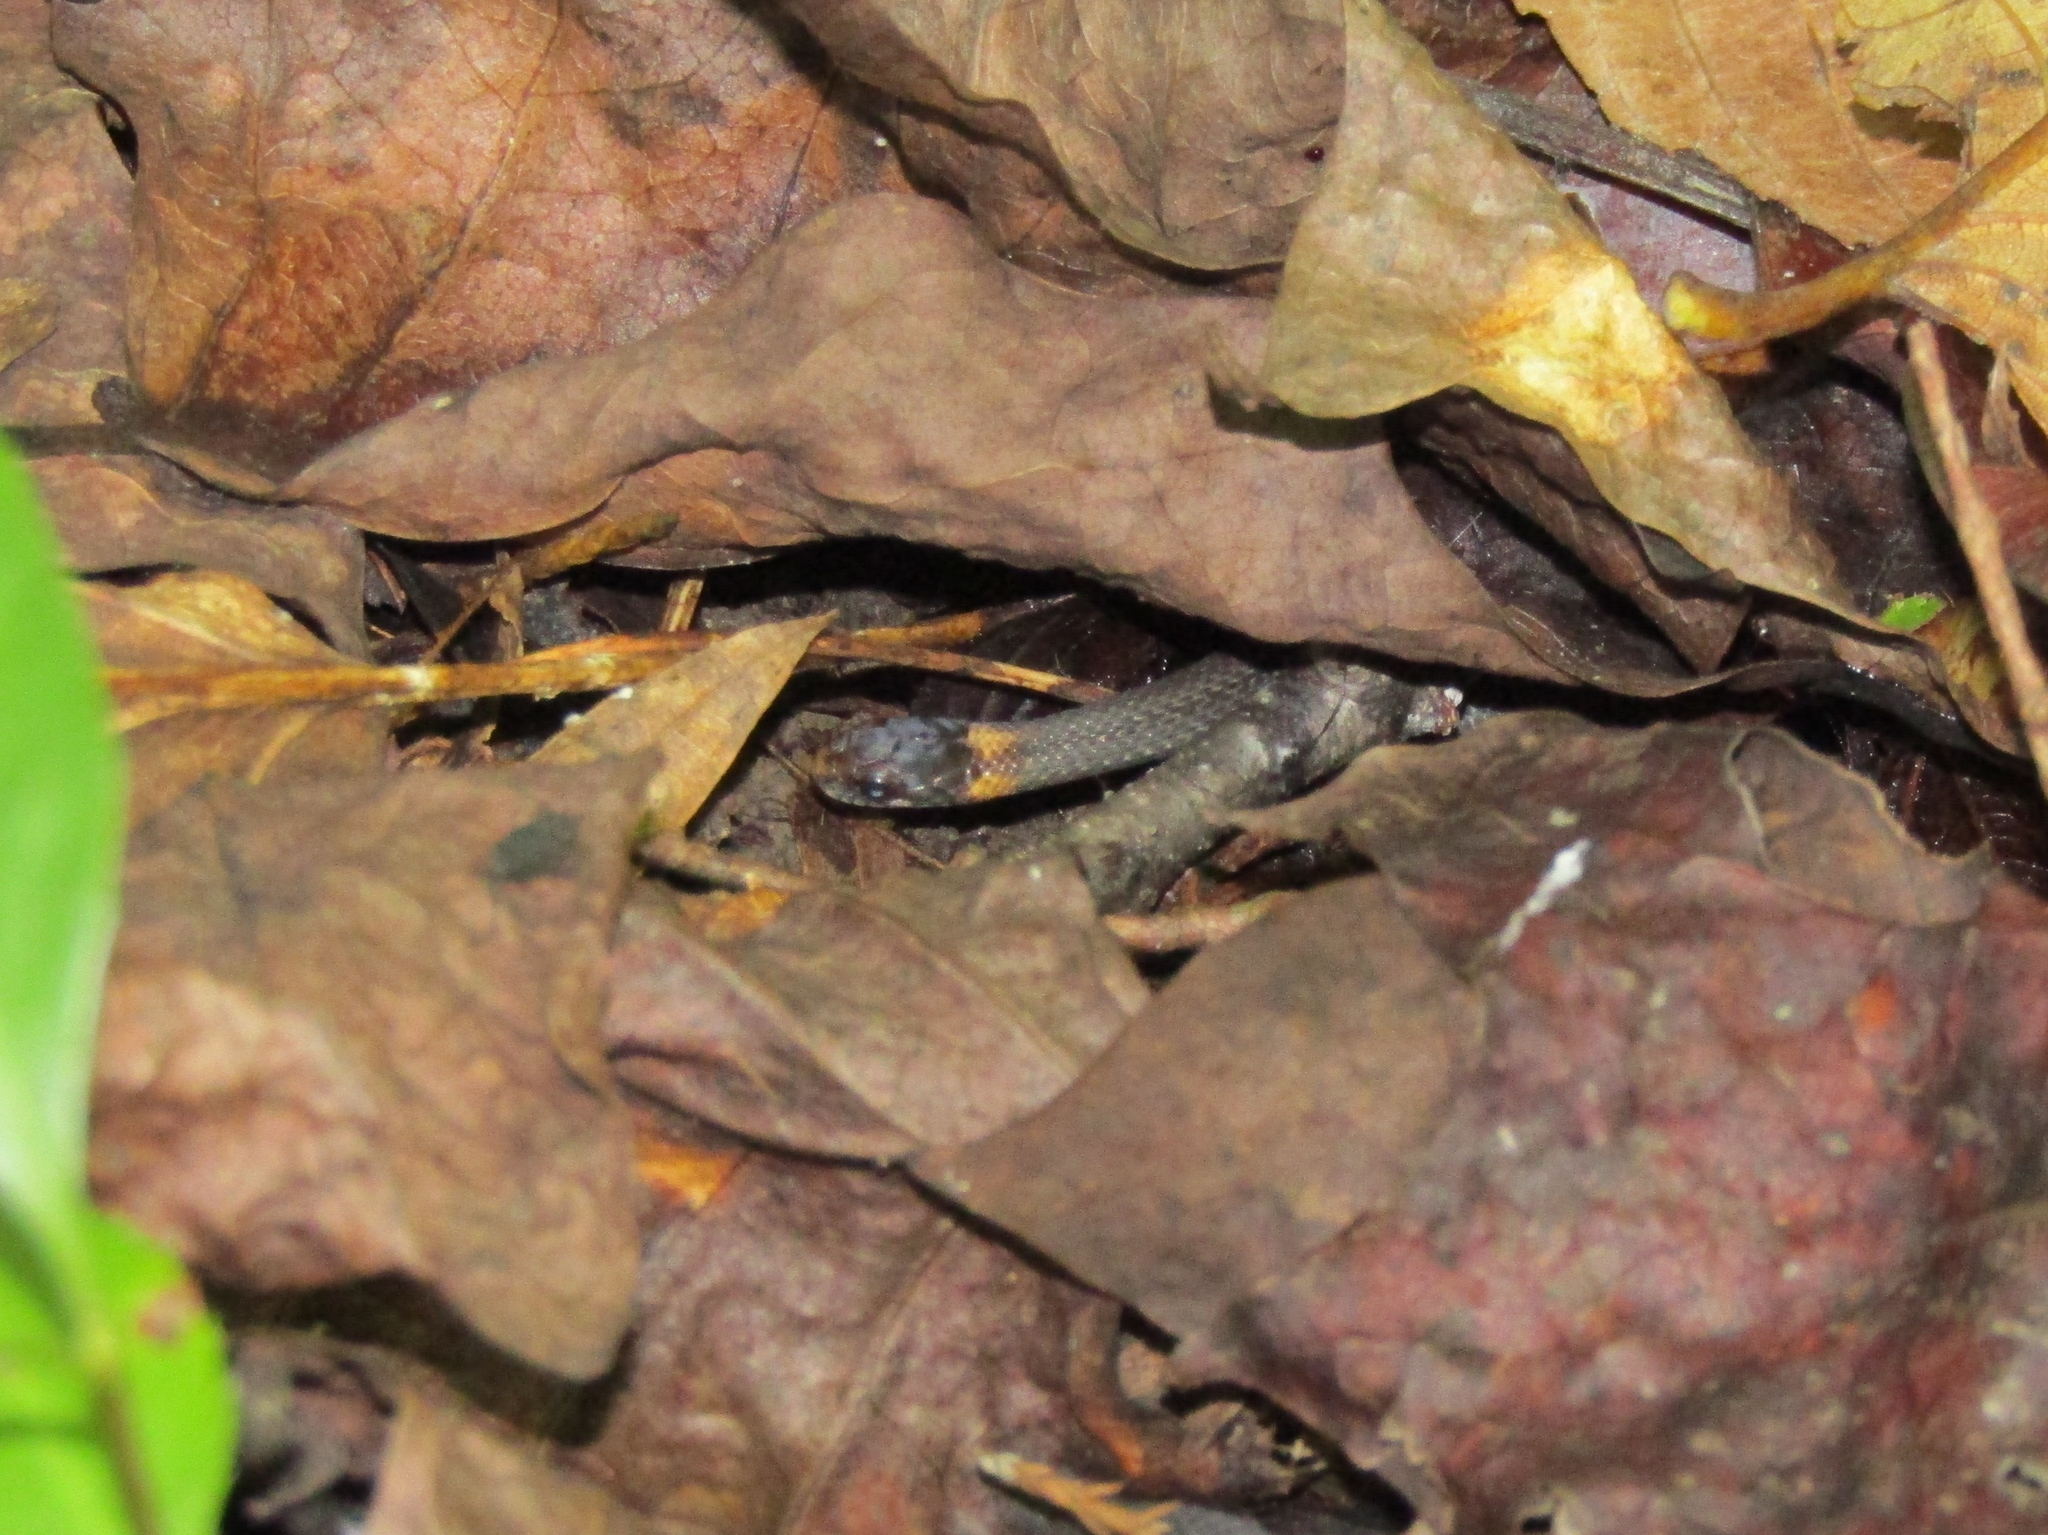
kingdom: Animalia
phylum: Chordata
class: Squamata
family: Colubridae
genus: Storeria
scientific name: Storeria occipitomaculata
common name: Redbelly snake
